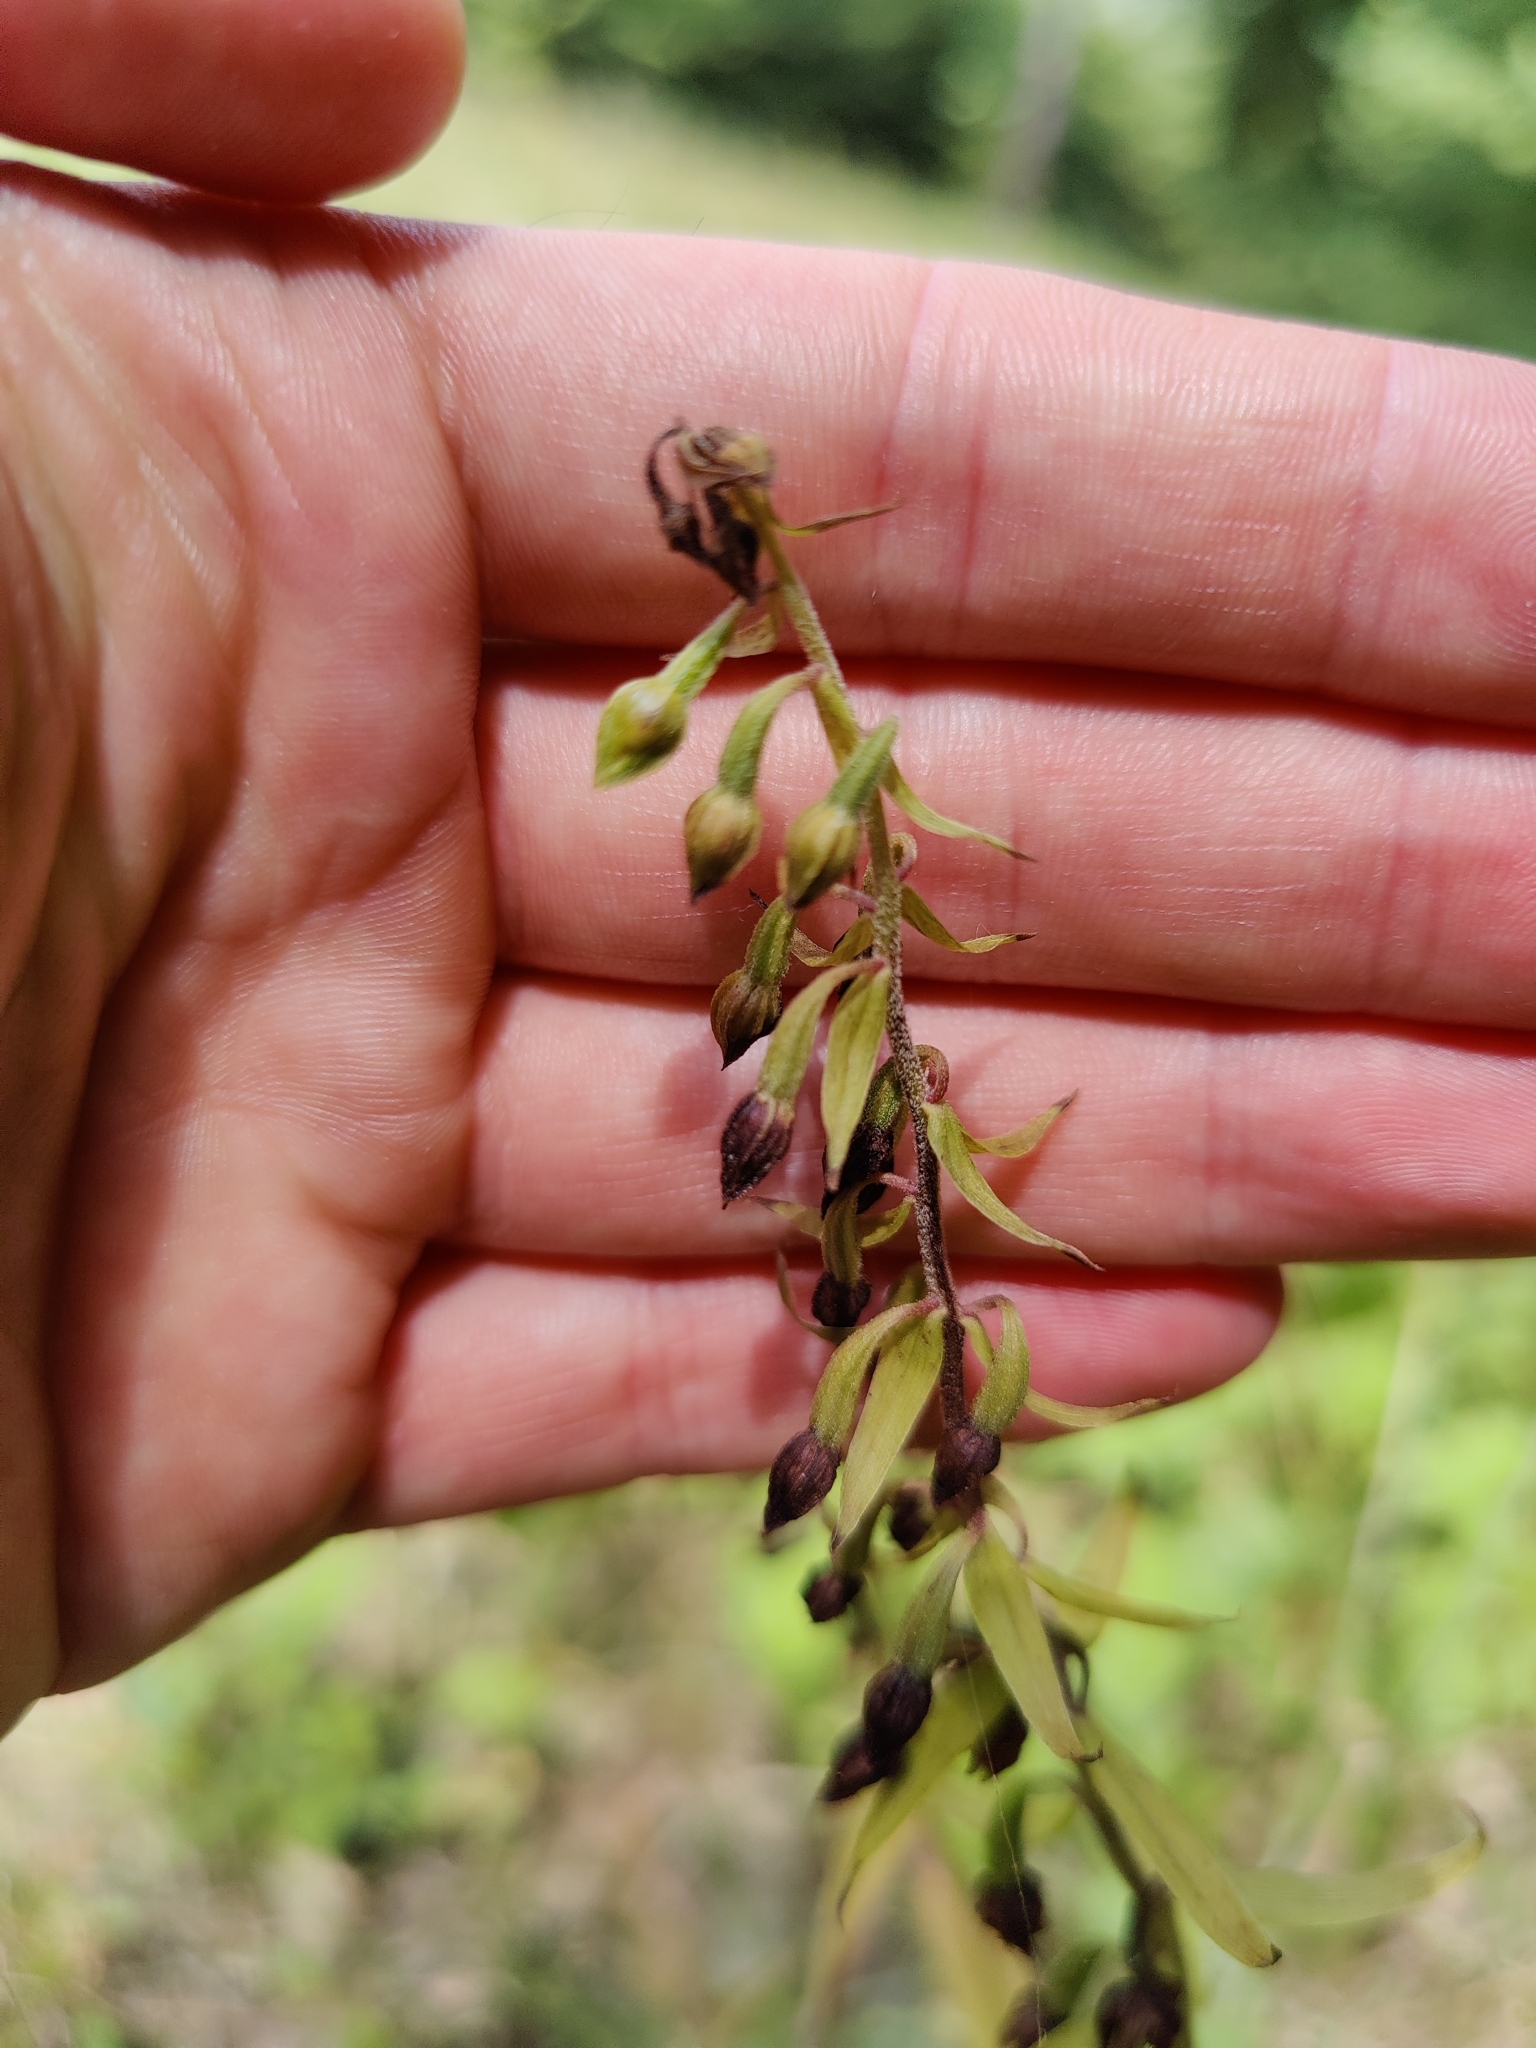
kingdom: Plantae
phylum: Tracheophyta
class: Liliopsida
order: Asparagales
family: Orchidaceae
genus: Epipactis
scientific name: Epipactis helleborine
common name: Broad-leaved helleborine
